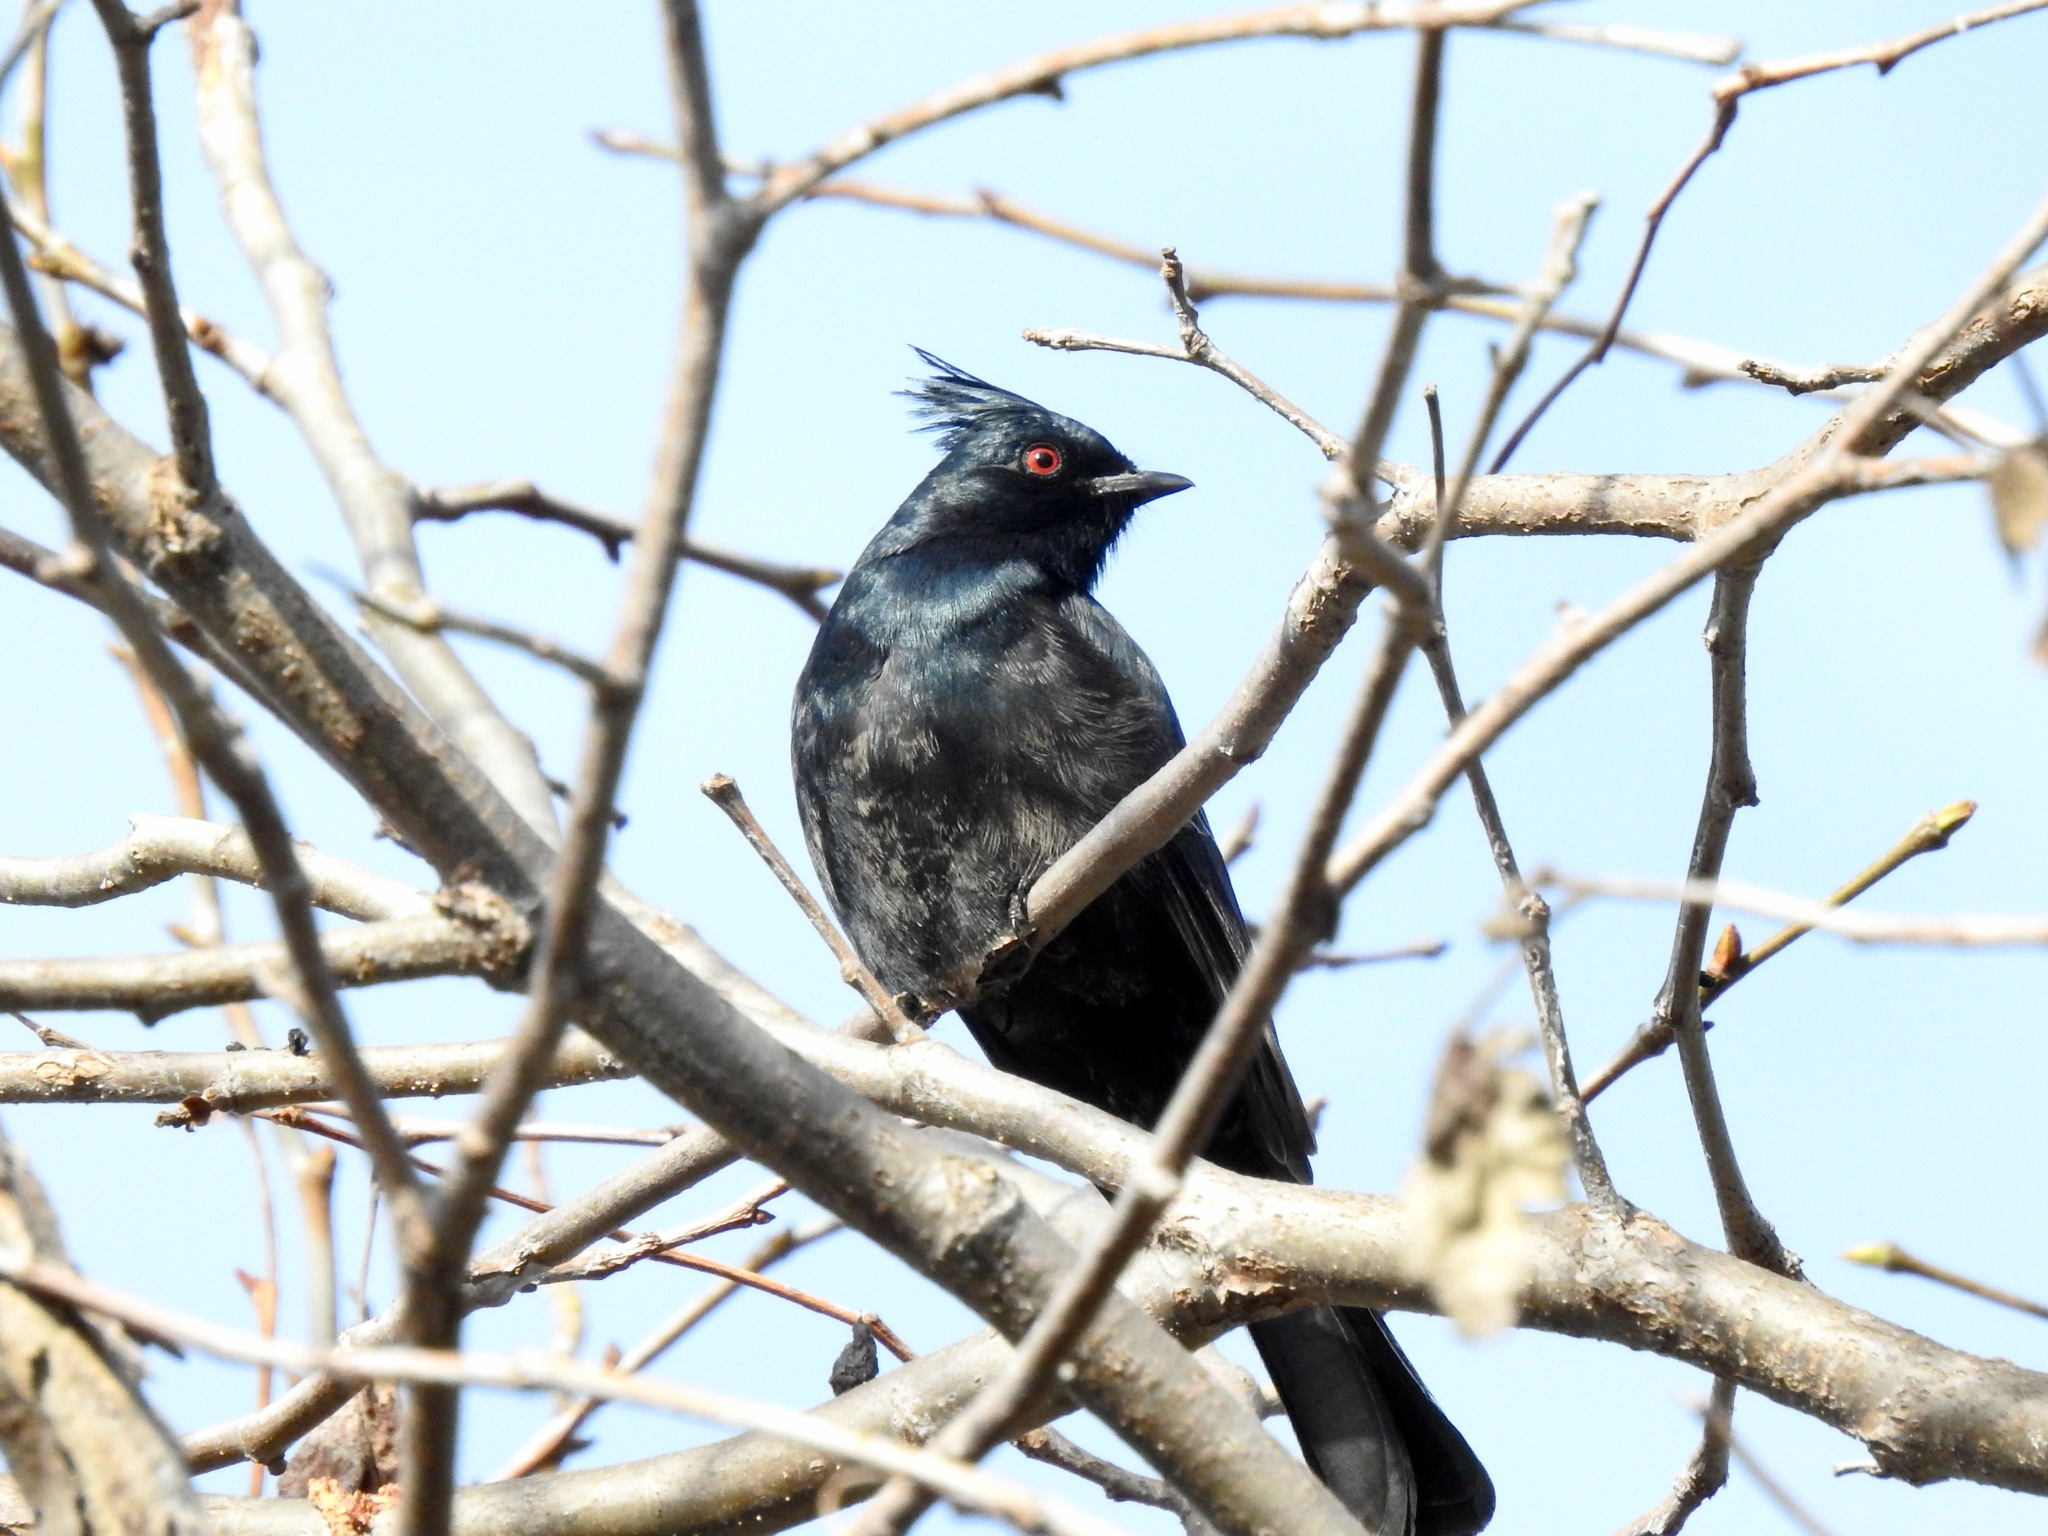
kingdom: Animalia
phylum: Chordata
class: Aves
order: Passeriformes
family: Ptilogonatidae
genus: Phainopepla
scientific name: Phainopepla nitens
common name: Phainopepla
